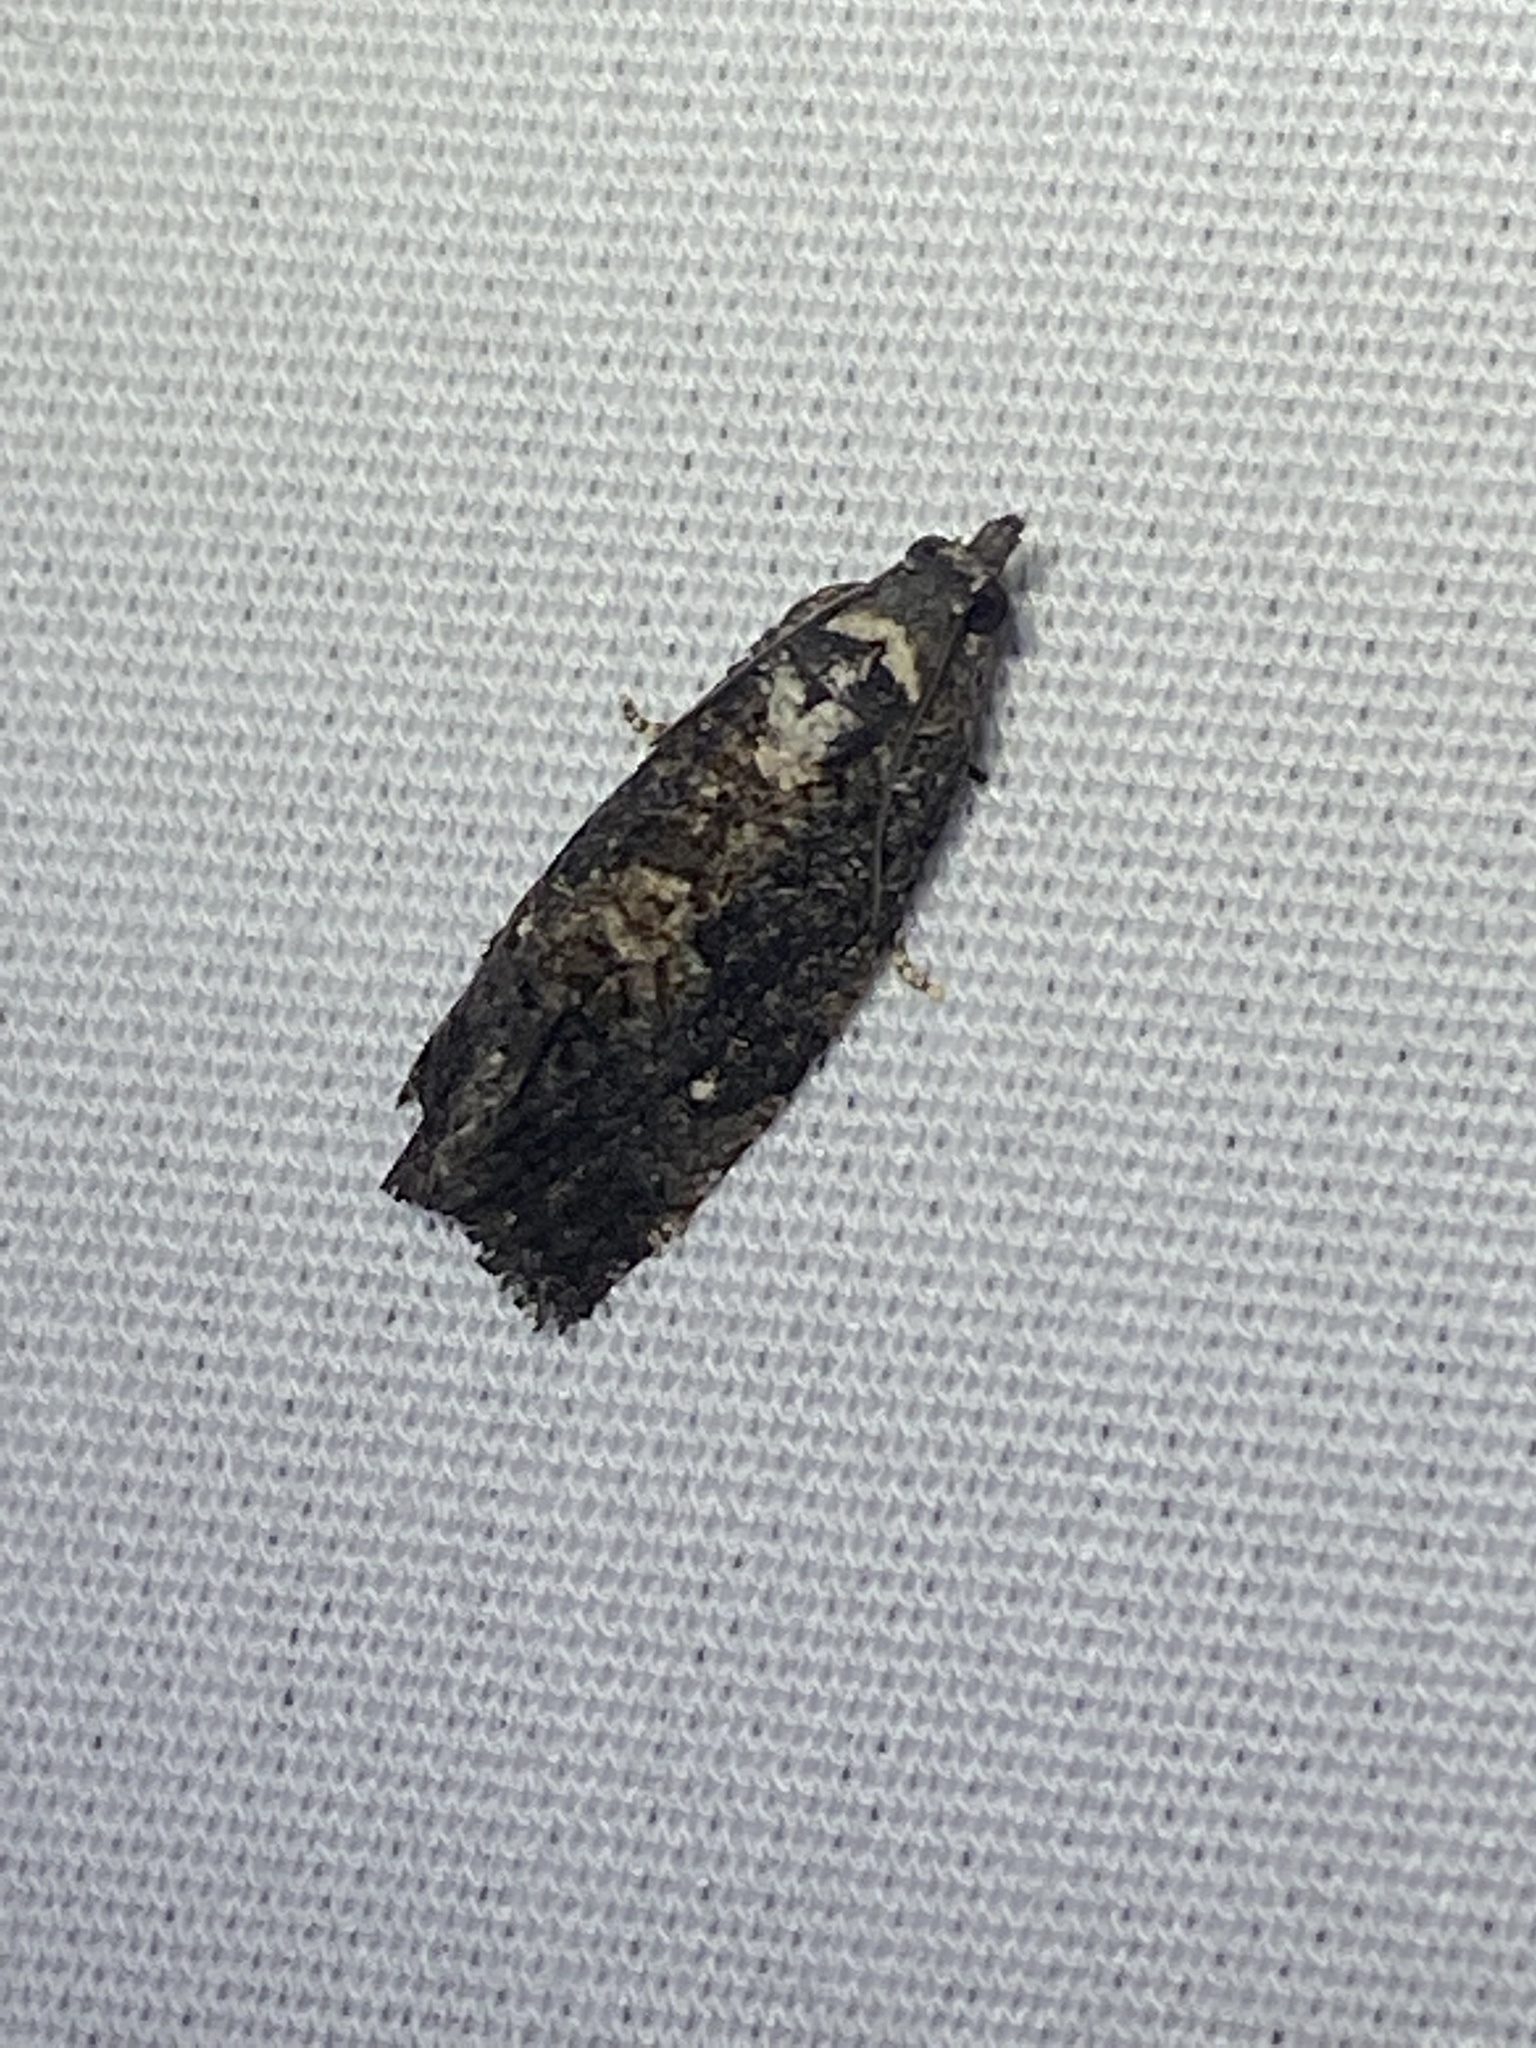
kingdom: Animalia
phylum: Arthropoda
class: Insecta
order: Lepidoptera
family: Tortricidae
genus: Gymnandrosoma
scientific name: Gymnandrosoma punctidiscanum
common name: Dotted ecdytolopha moth
